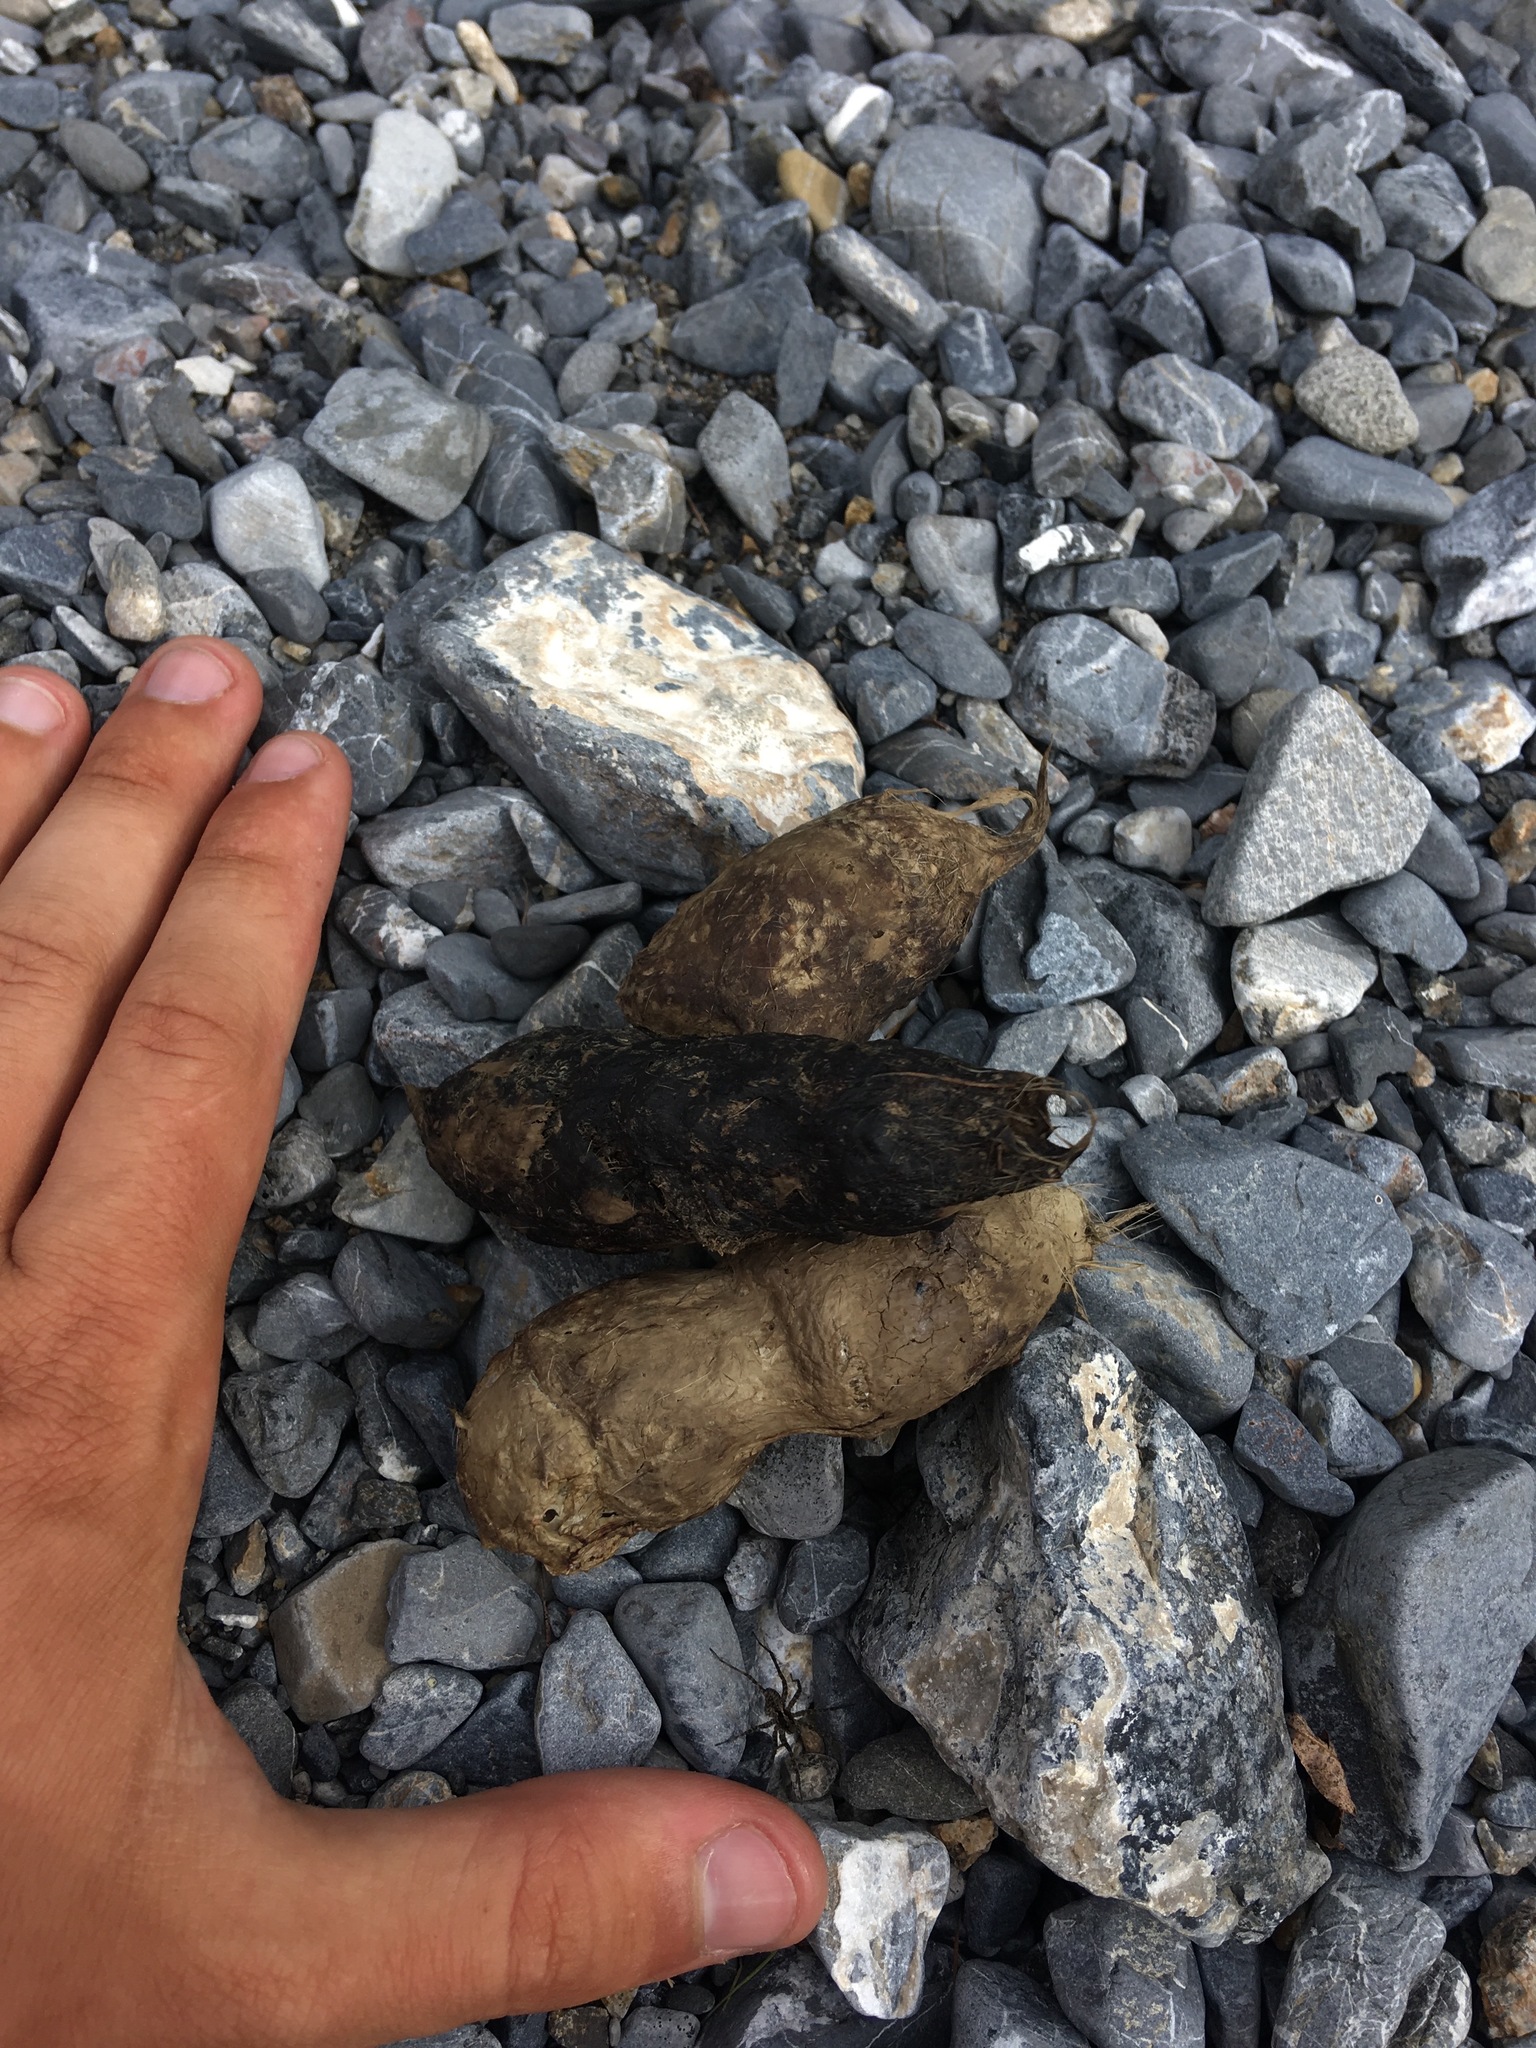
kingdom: Animalia
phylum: Chordata
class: Mammalia
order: Carnivora
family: Felidae
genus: Lynx
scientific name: Lynx lynx
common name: Eurasian lynx
